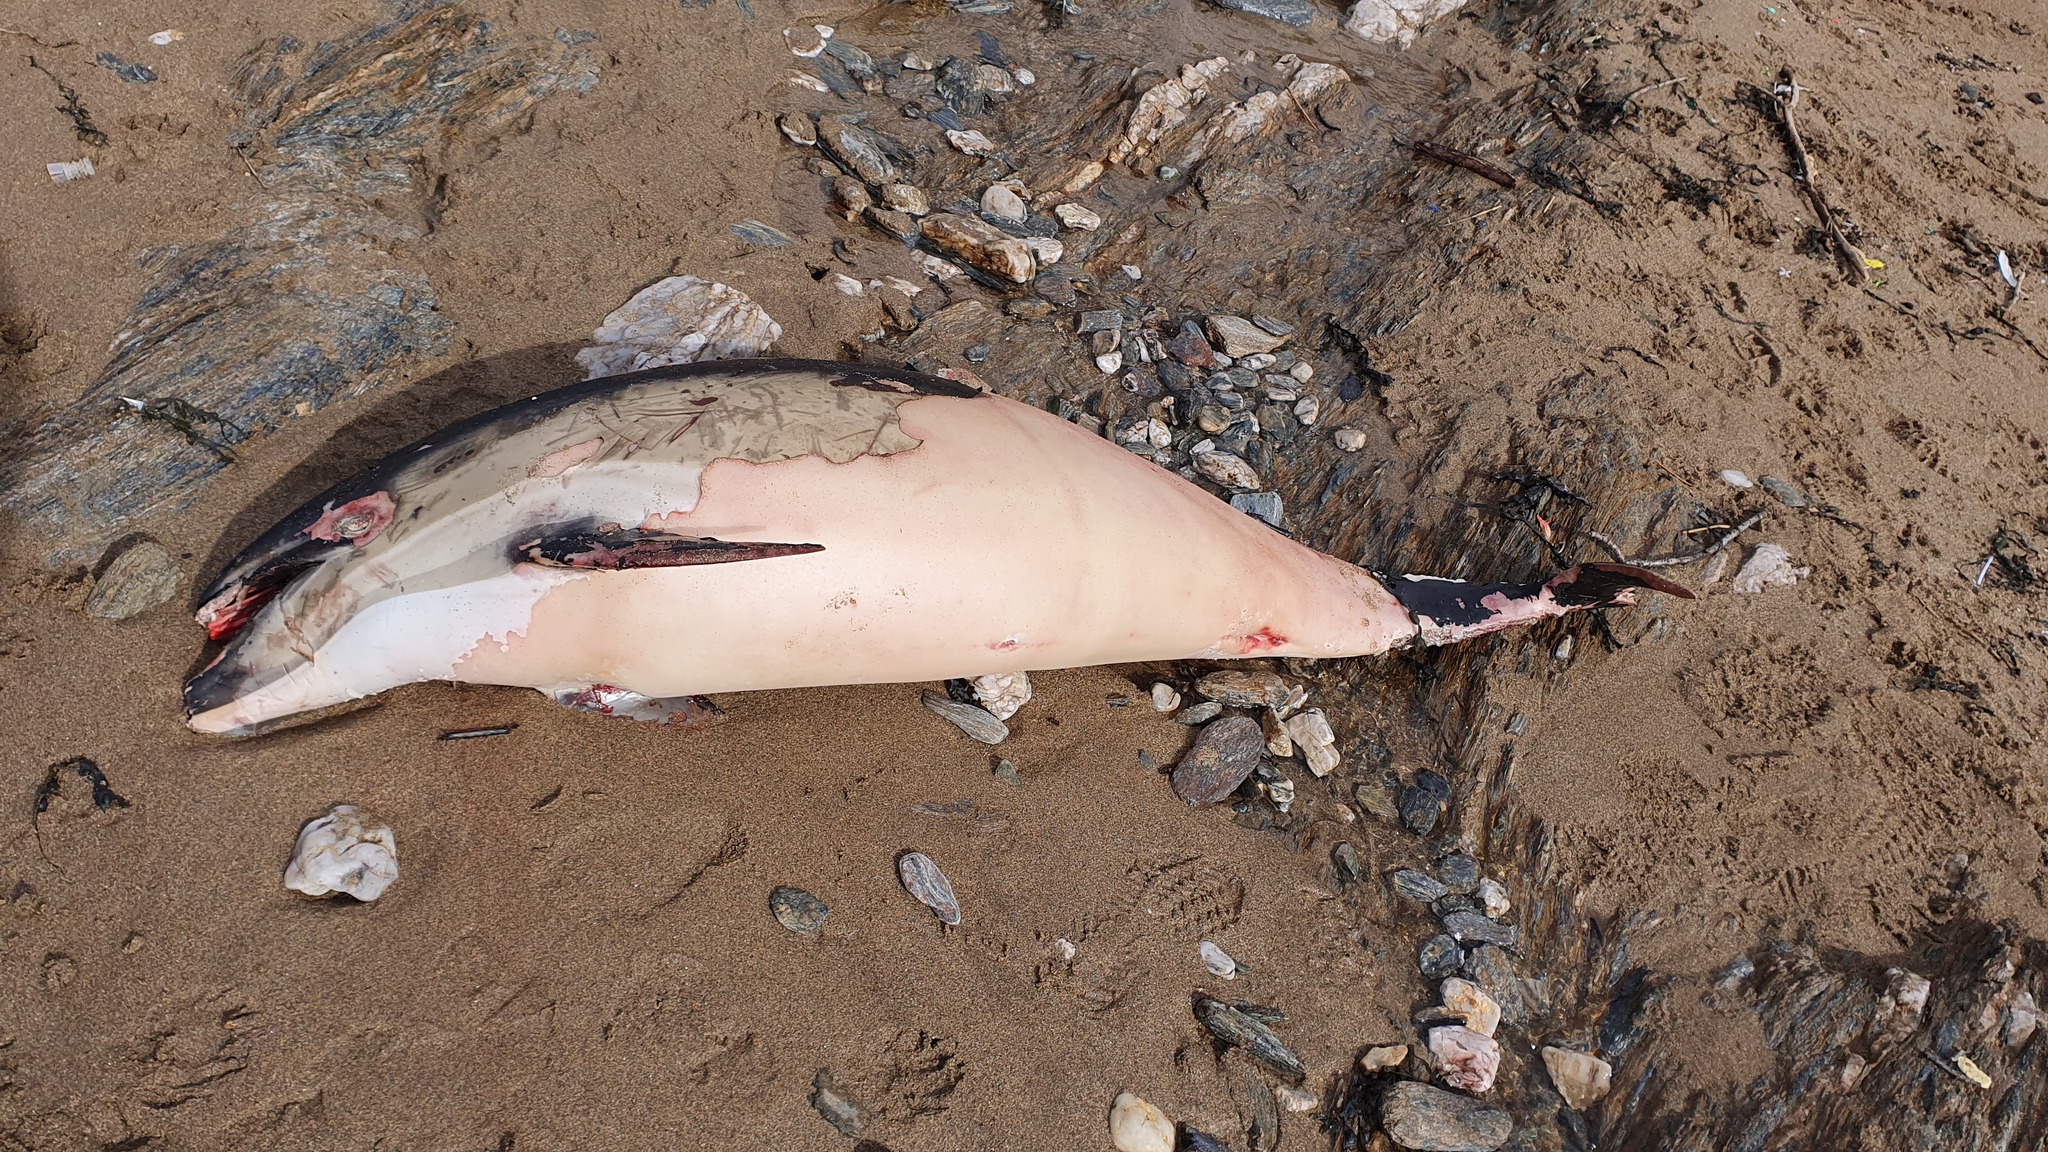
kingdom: Animalia
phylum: Chordata
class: Mammalia
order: Cetacea
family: Delphinidae
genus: Delphinus
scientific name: Delphinus delphis
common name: Common dolphin
